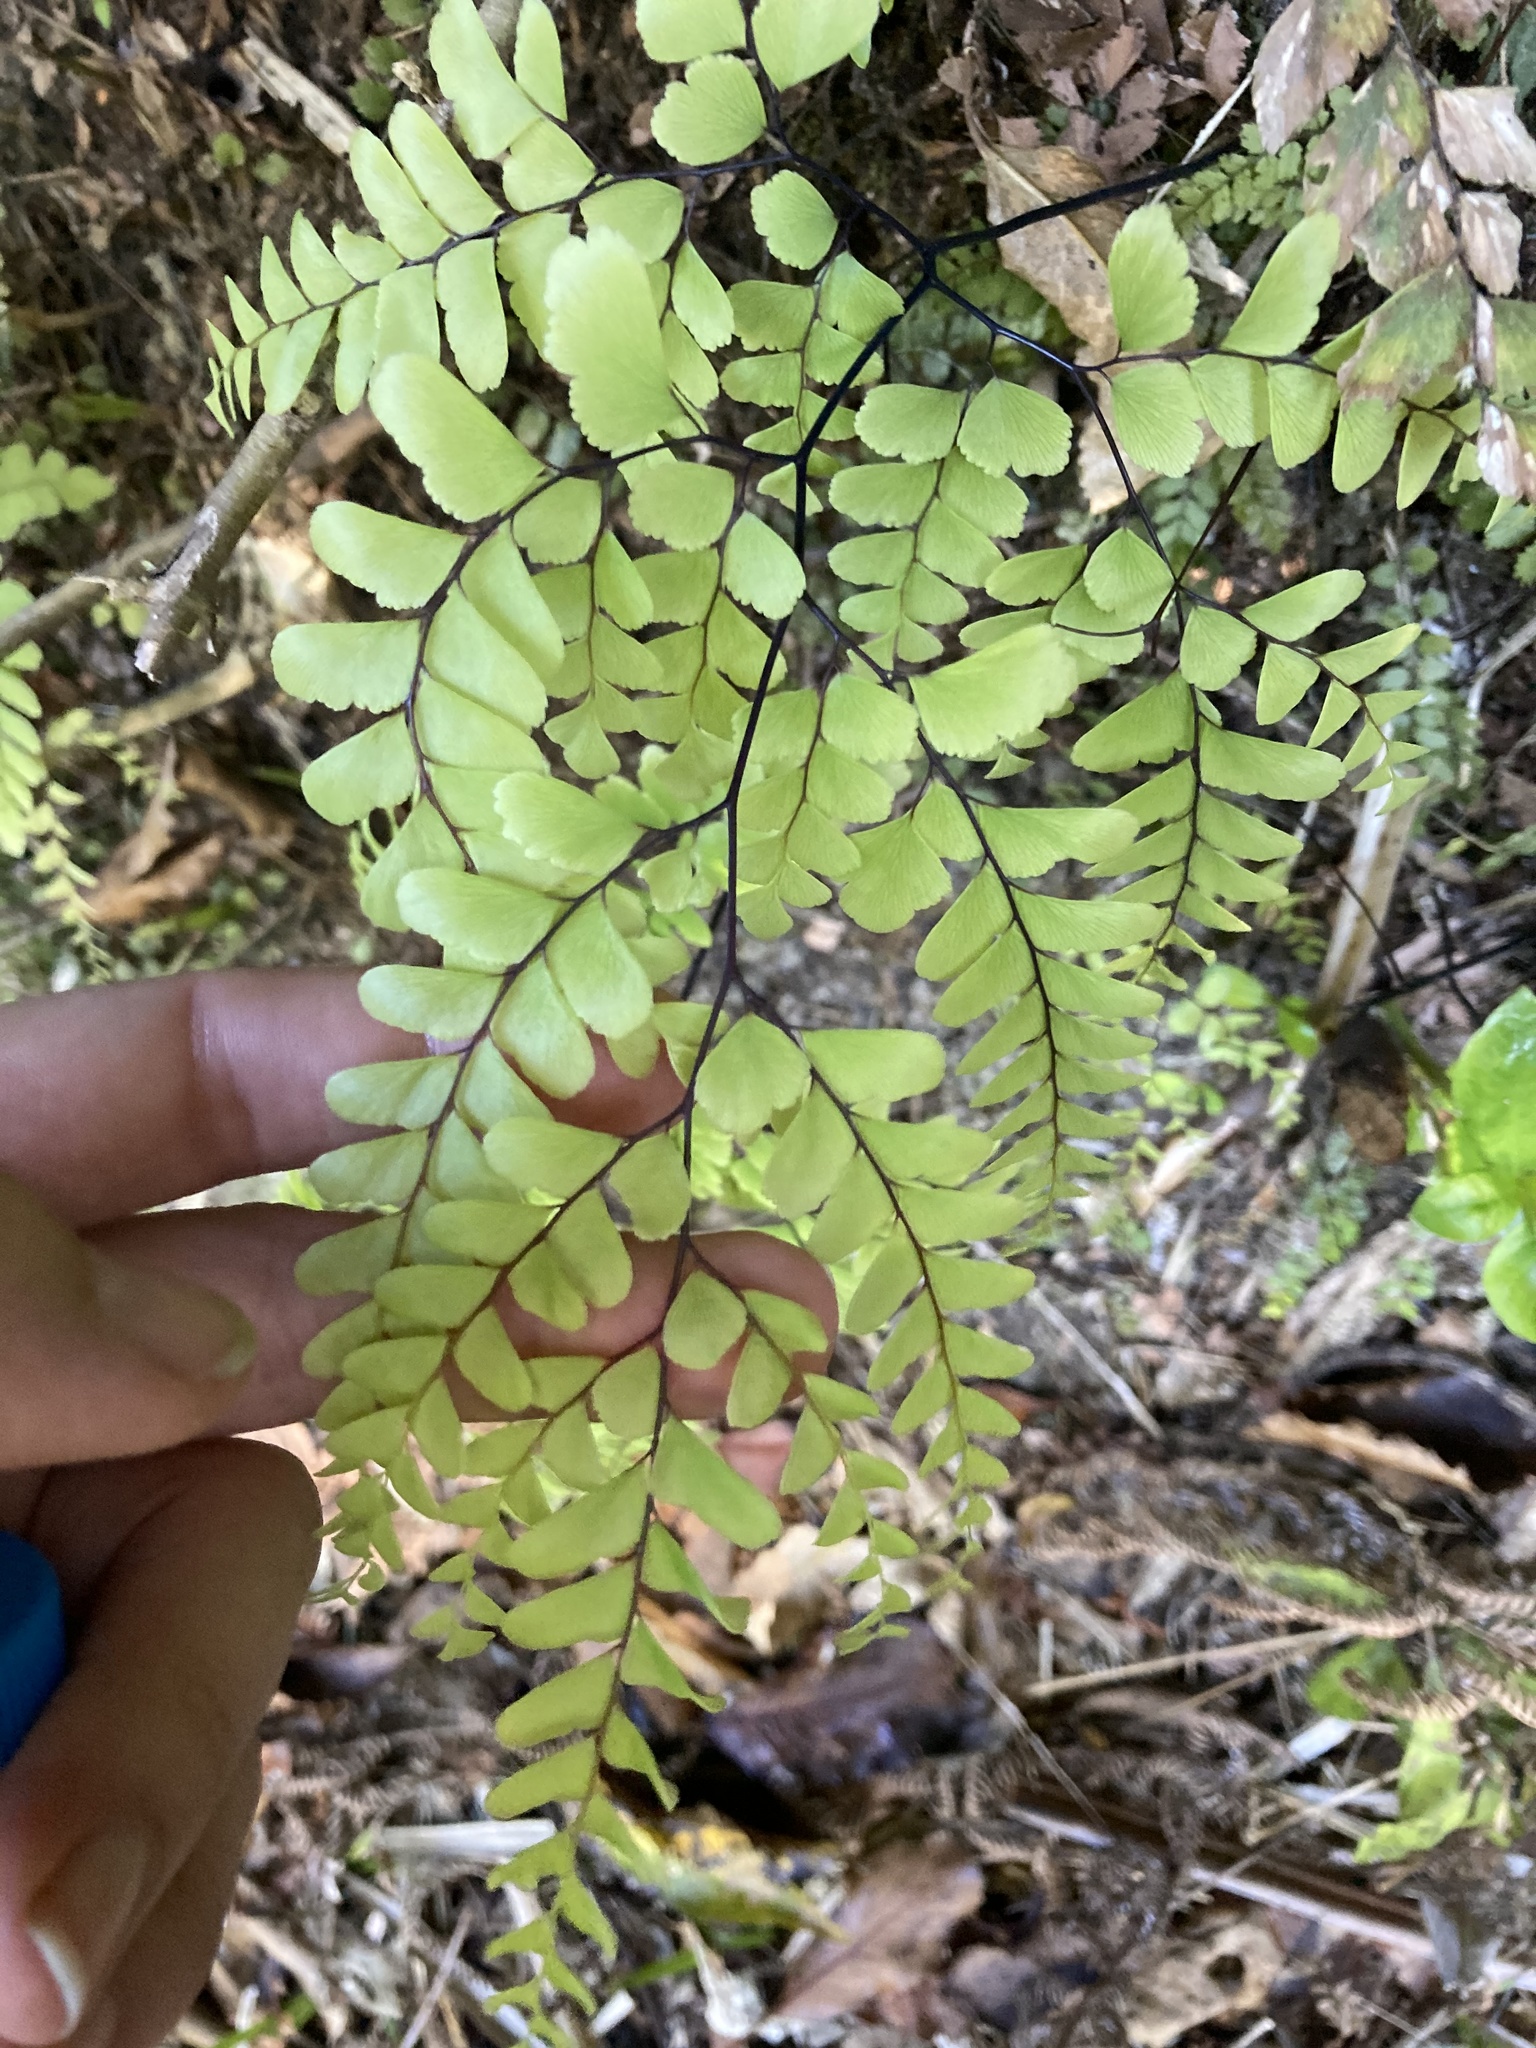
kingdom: Plantae
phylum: Tracheophyta
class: Polypodiopsida
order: Polypodiales
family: Pteridaceae
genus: Adiantum
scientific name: Adiantum cunninghamii
